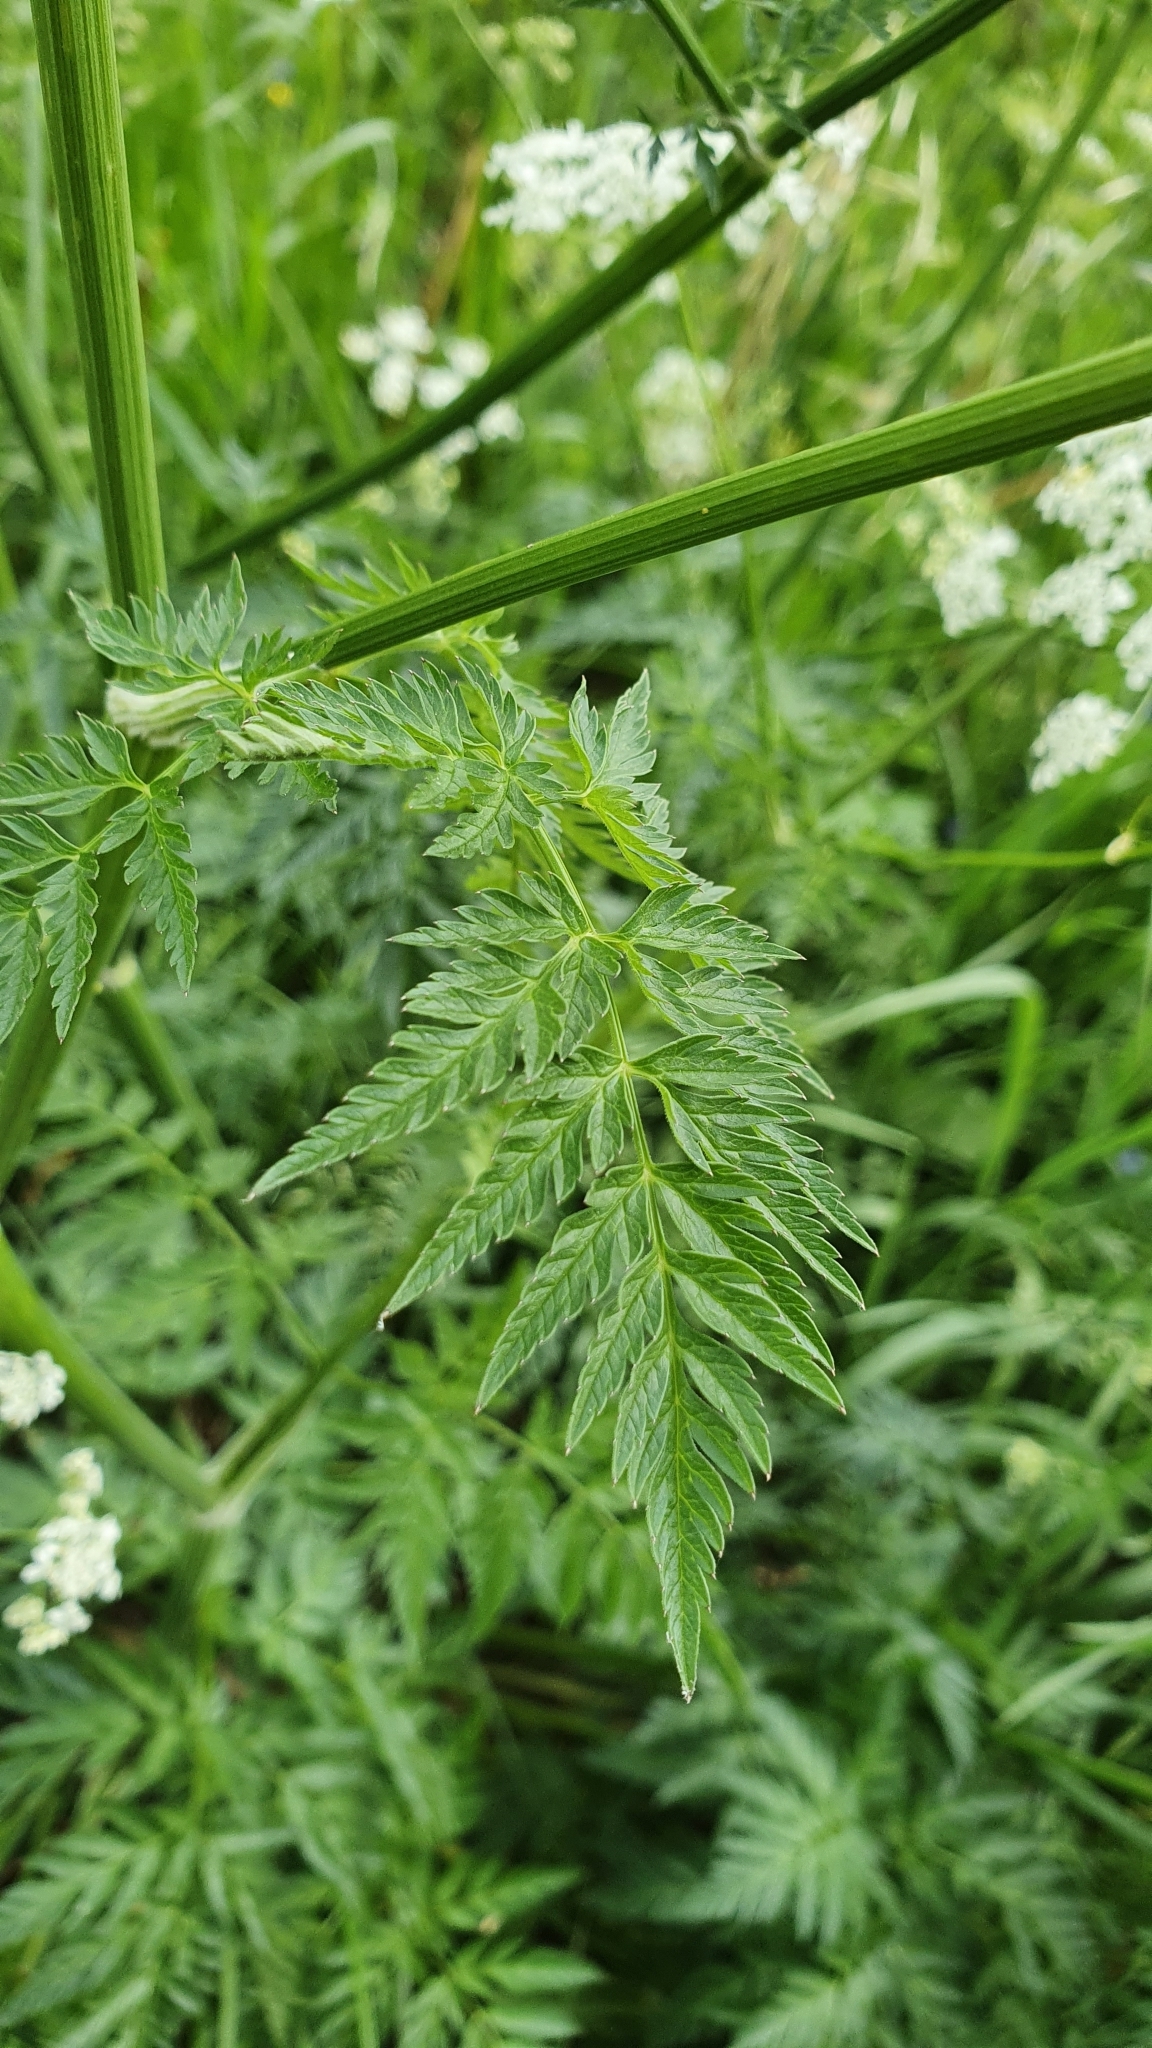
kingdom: Plantae
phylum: Tracheophyta
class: Magnoliopsida
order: Apiales
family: Apiaceae
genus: Anthriscus
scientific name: Anthriscus sylvestris
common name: Cow parsley
